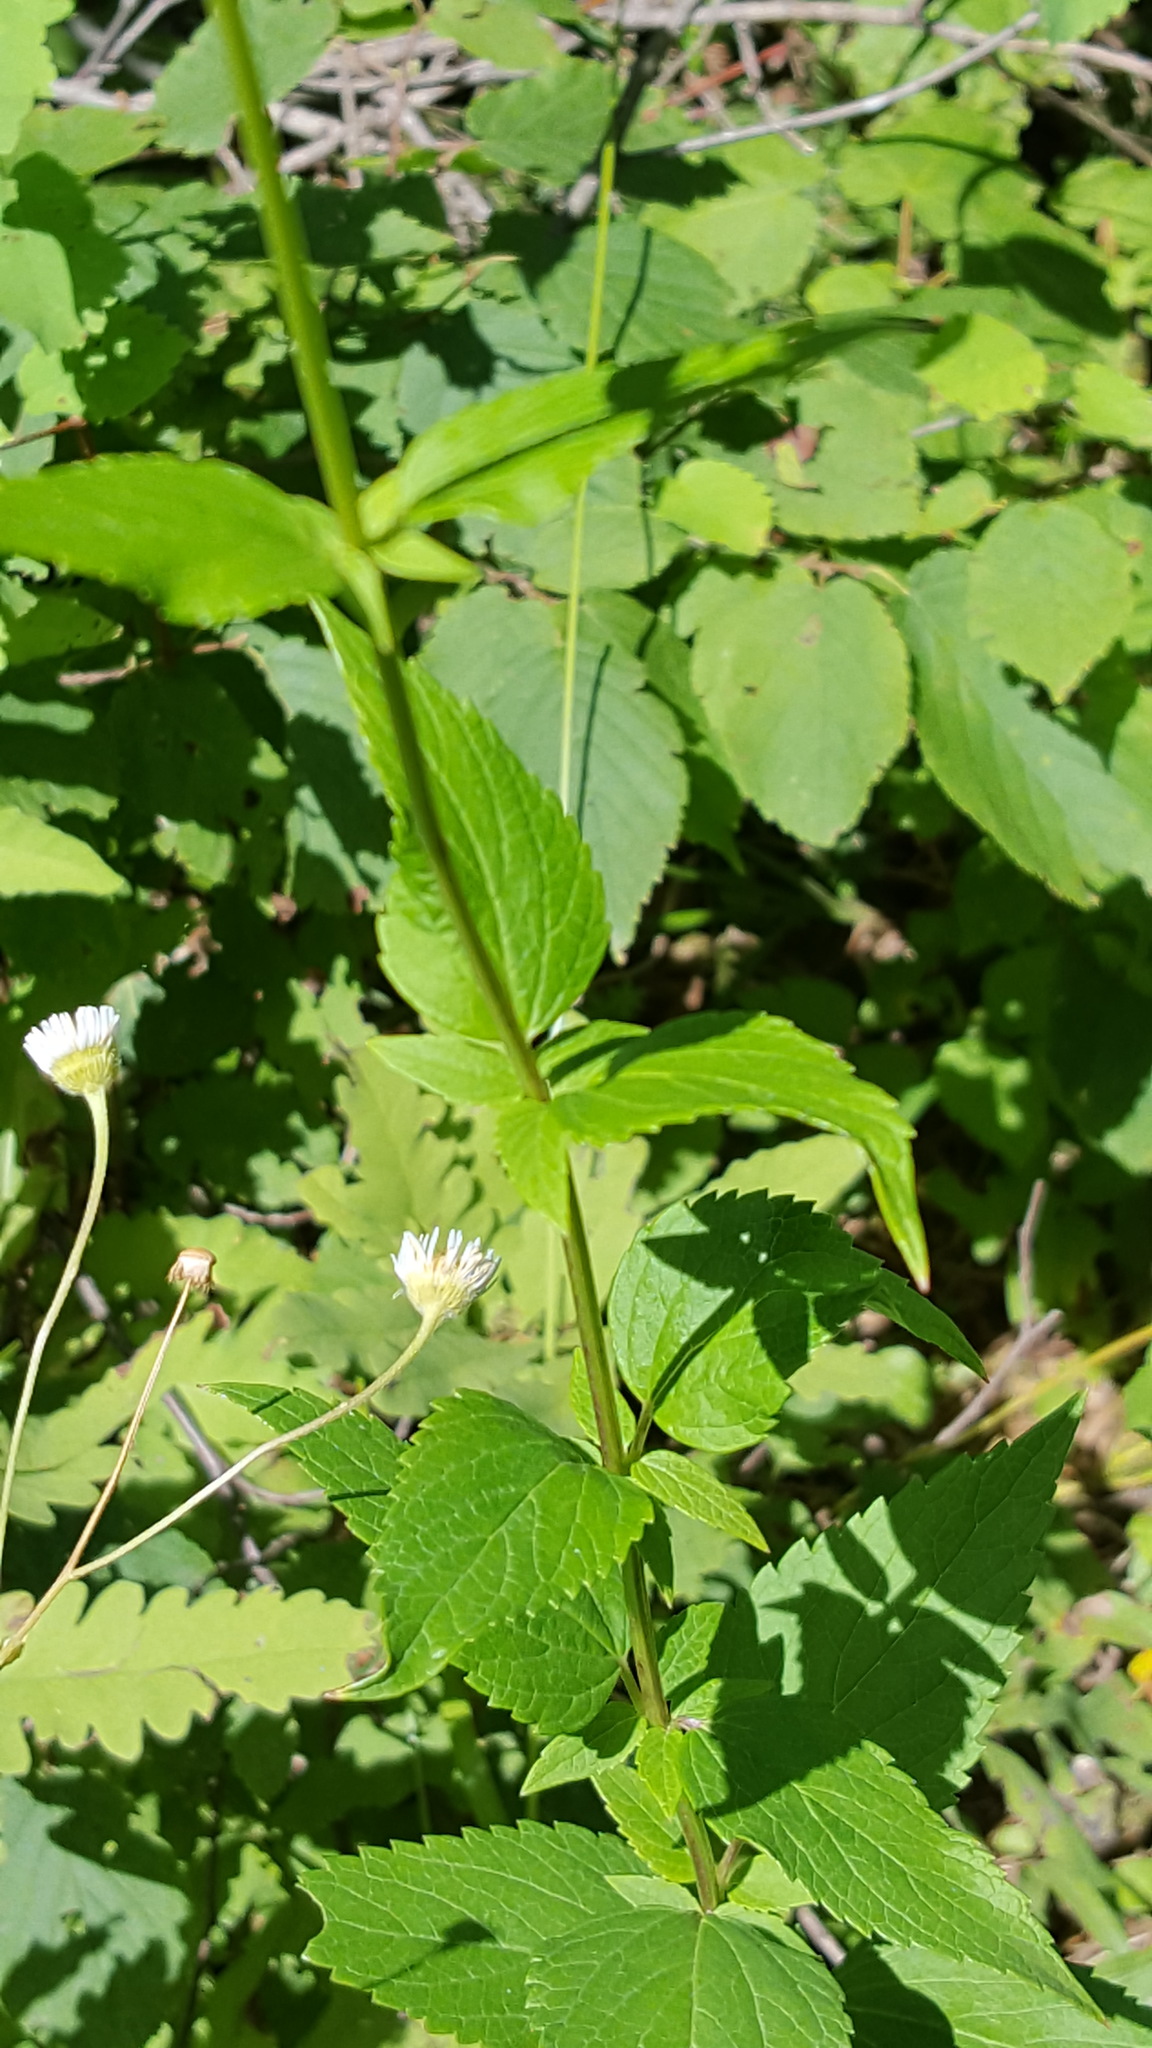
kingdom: Plantae
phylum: Tracheophyta
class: Magnoliopsida
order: Lamiales
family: Lamiaceae
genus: Agastache
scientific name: Agastache foeniculum
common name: Anise hyssop
